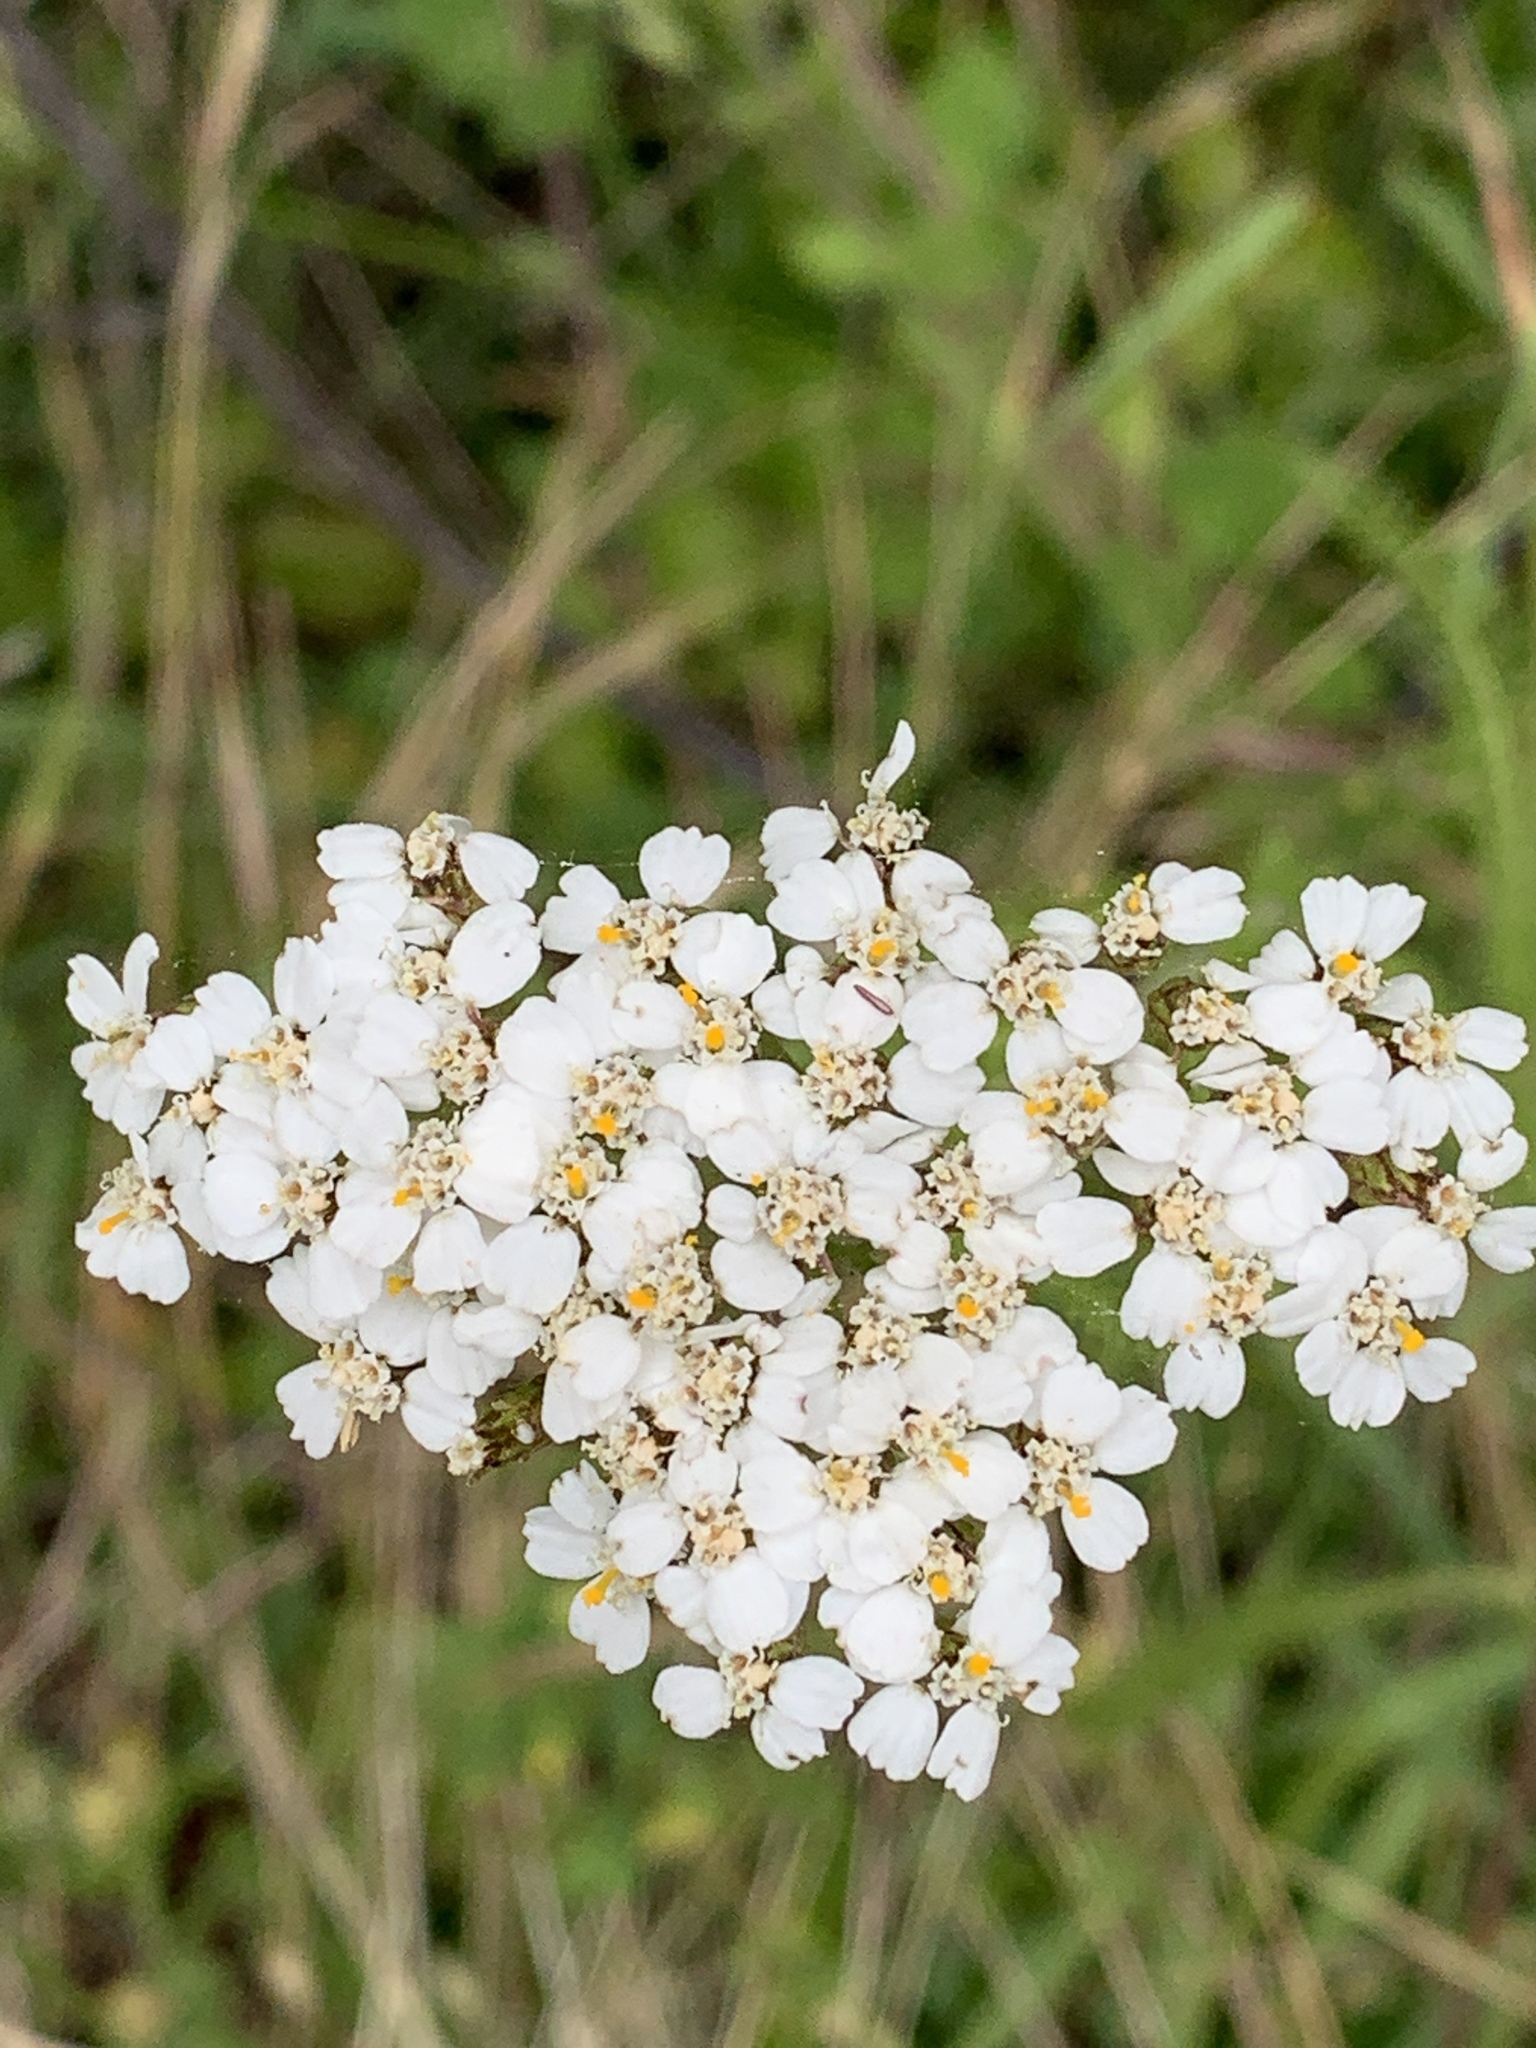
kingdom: Plantae
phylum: Tracheophyta
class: Magnoliopsida
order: Asterales
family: Asteraceae
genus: Achillea
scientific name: Achillea millefolium
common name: Yarrow
